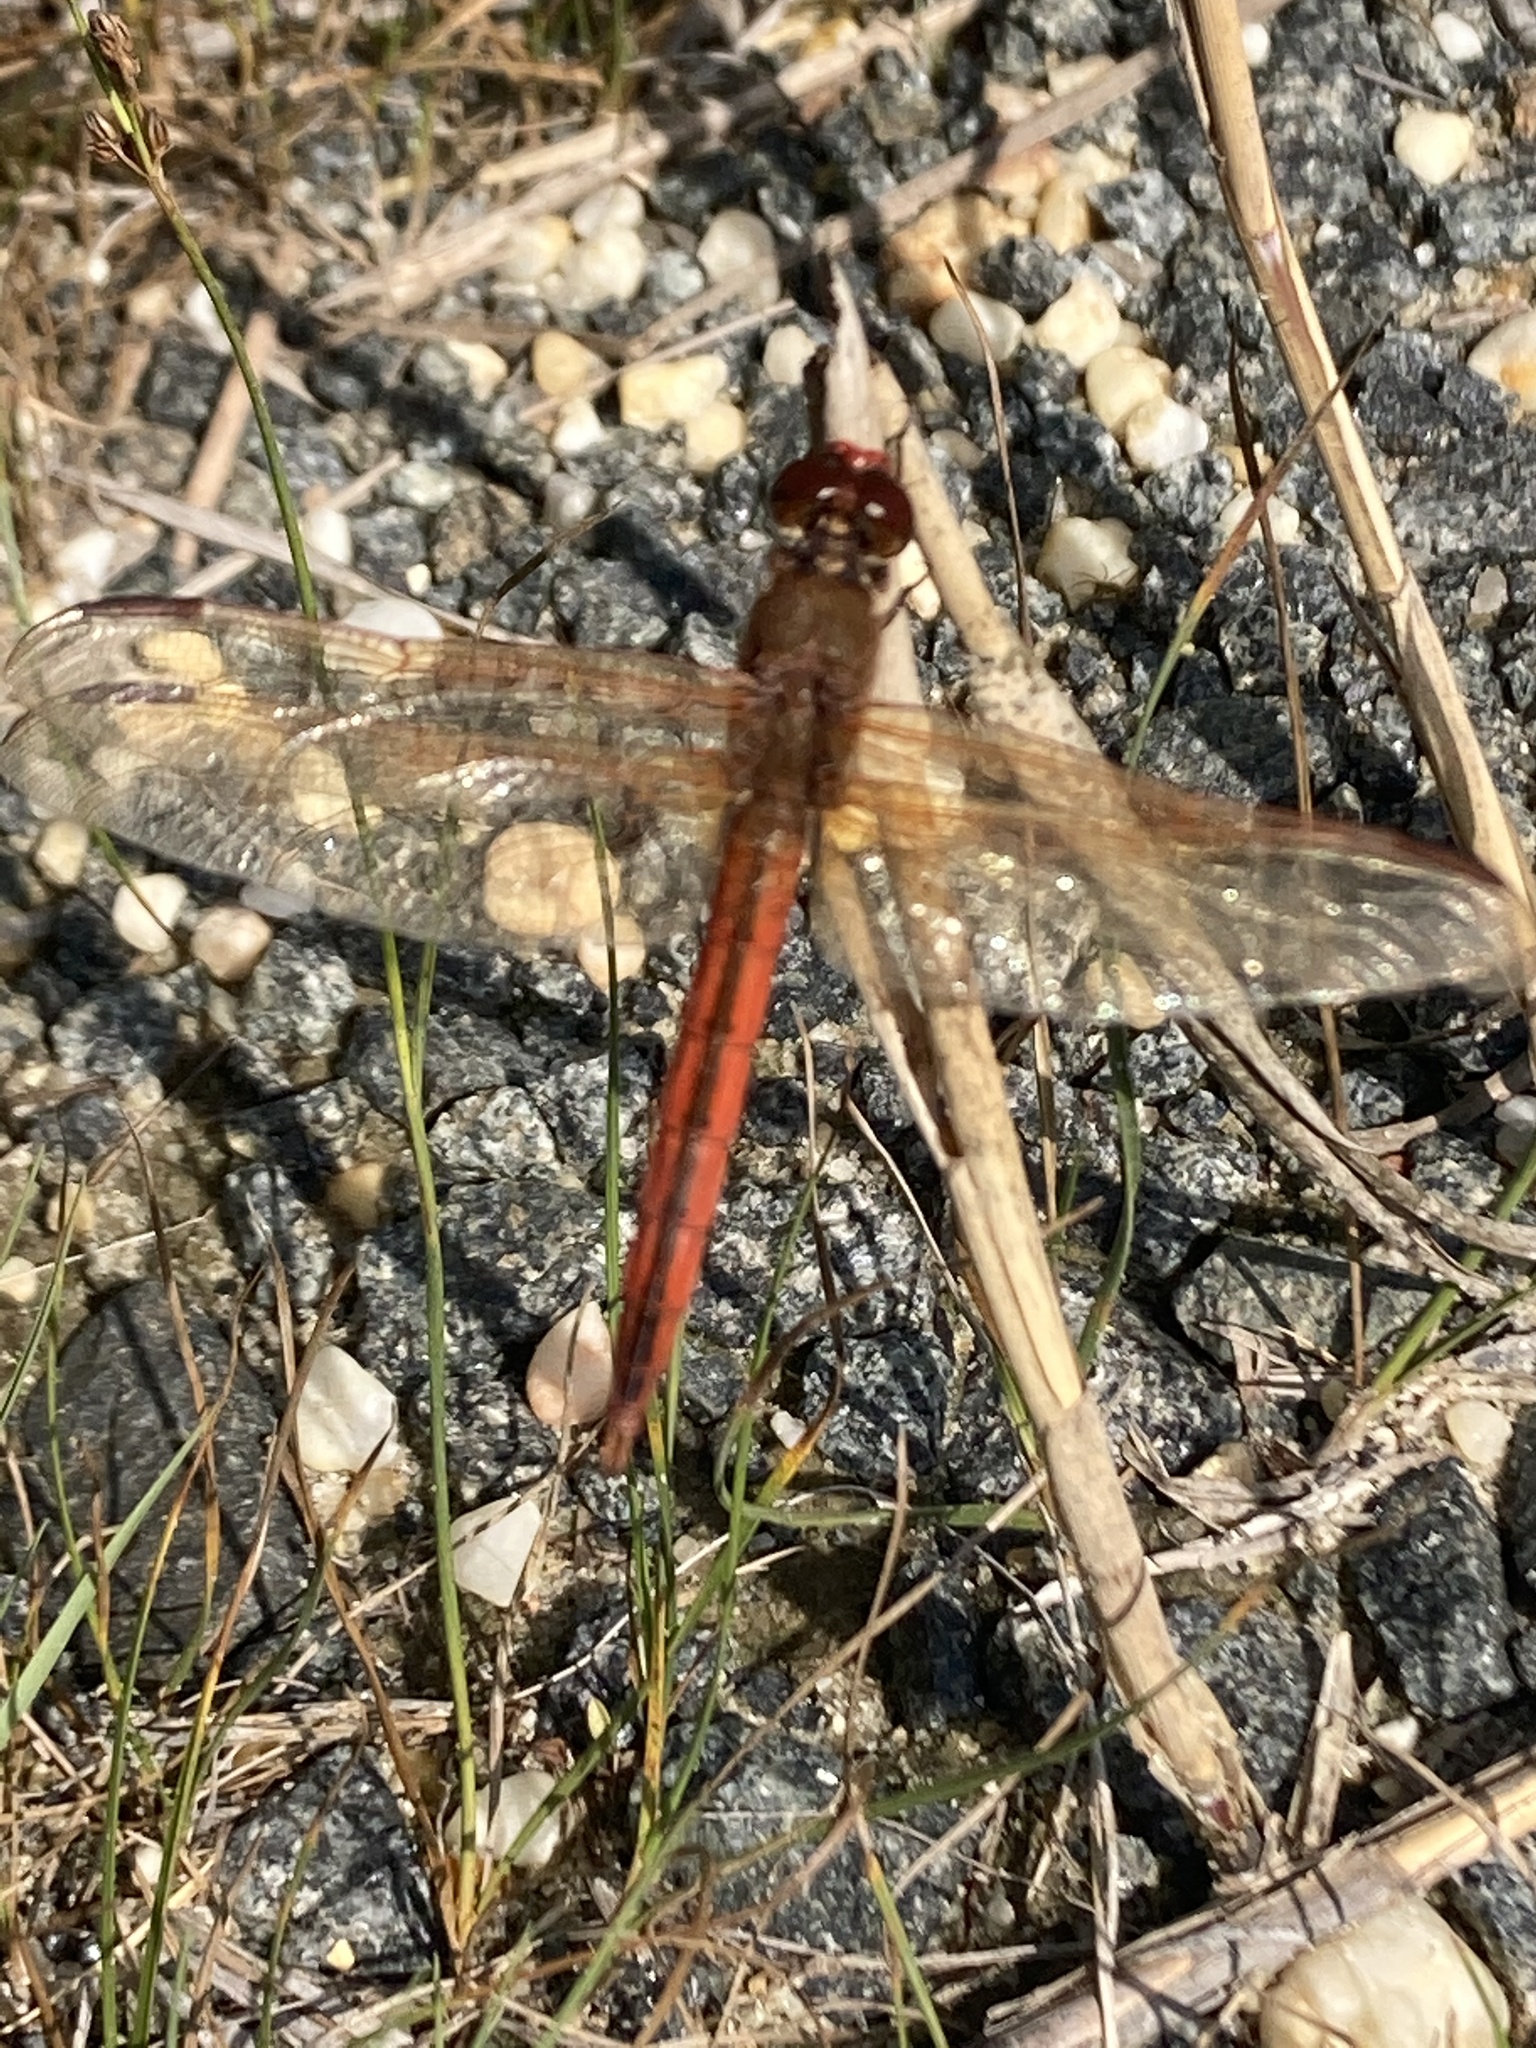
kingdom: Animalia
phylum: Arthropoda
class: Insecta
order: Odonata
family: Libellulidae
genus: Libellula
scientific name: Libellula needhami
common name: Needham's skimmer
